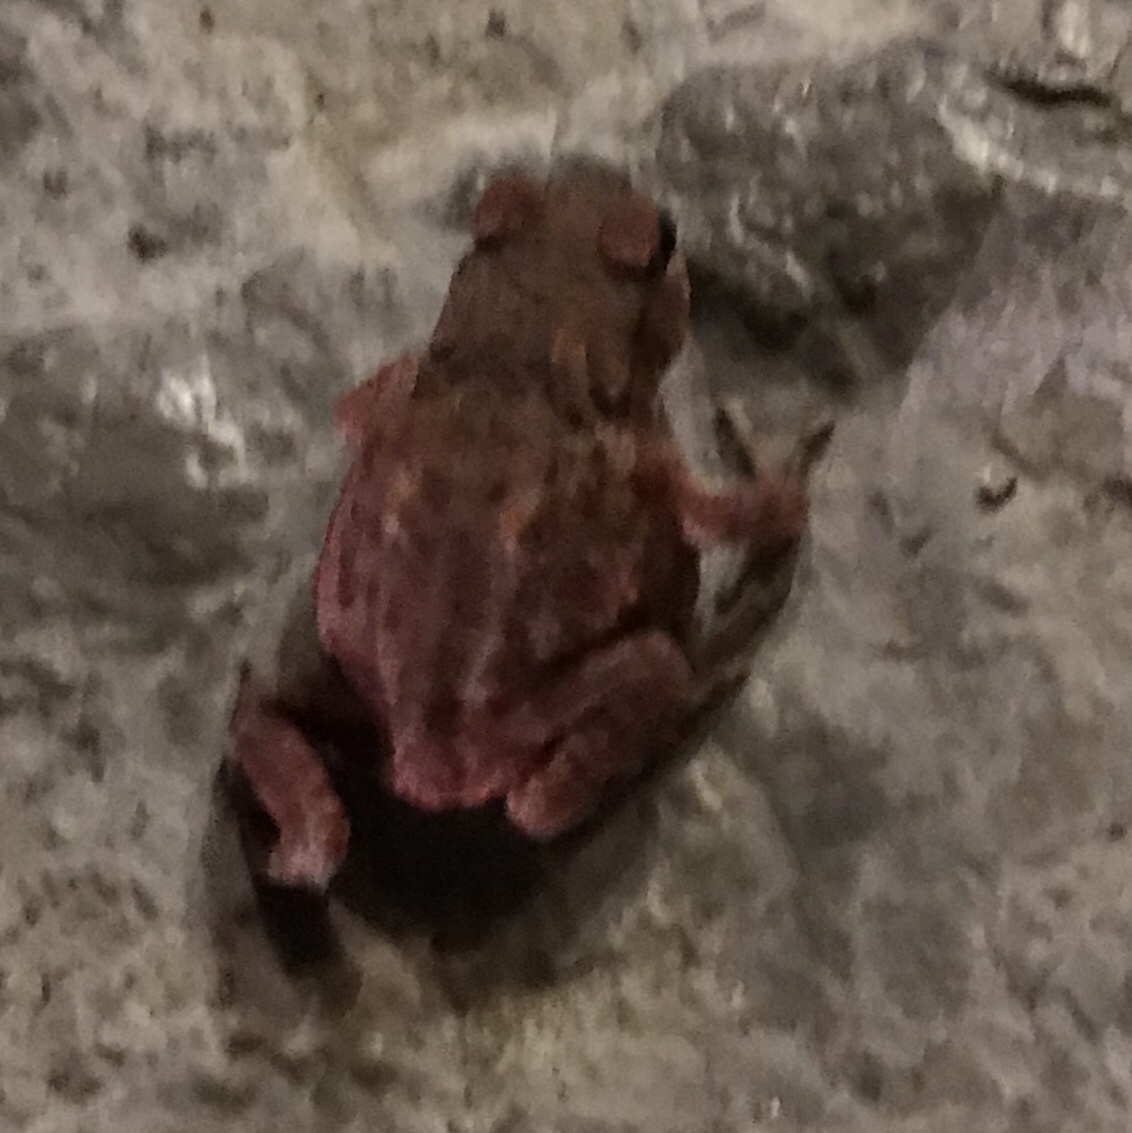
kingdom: Animalia
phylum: Chordata
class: Amphibia
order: Anura
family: Bufonidae
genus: Bufo
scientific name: Bufo bufo
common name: Common toad
